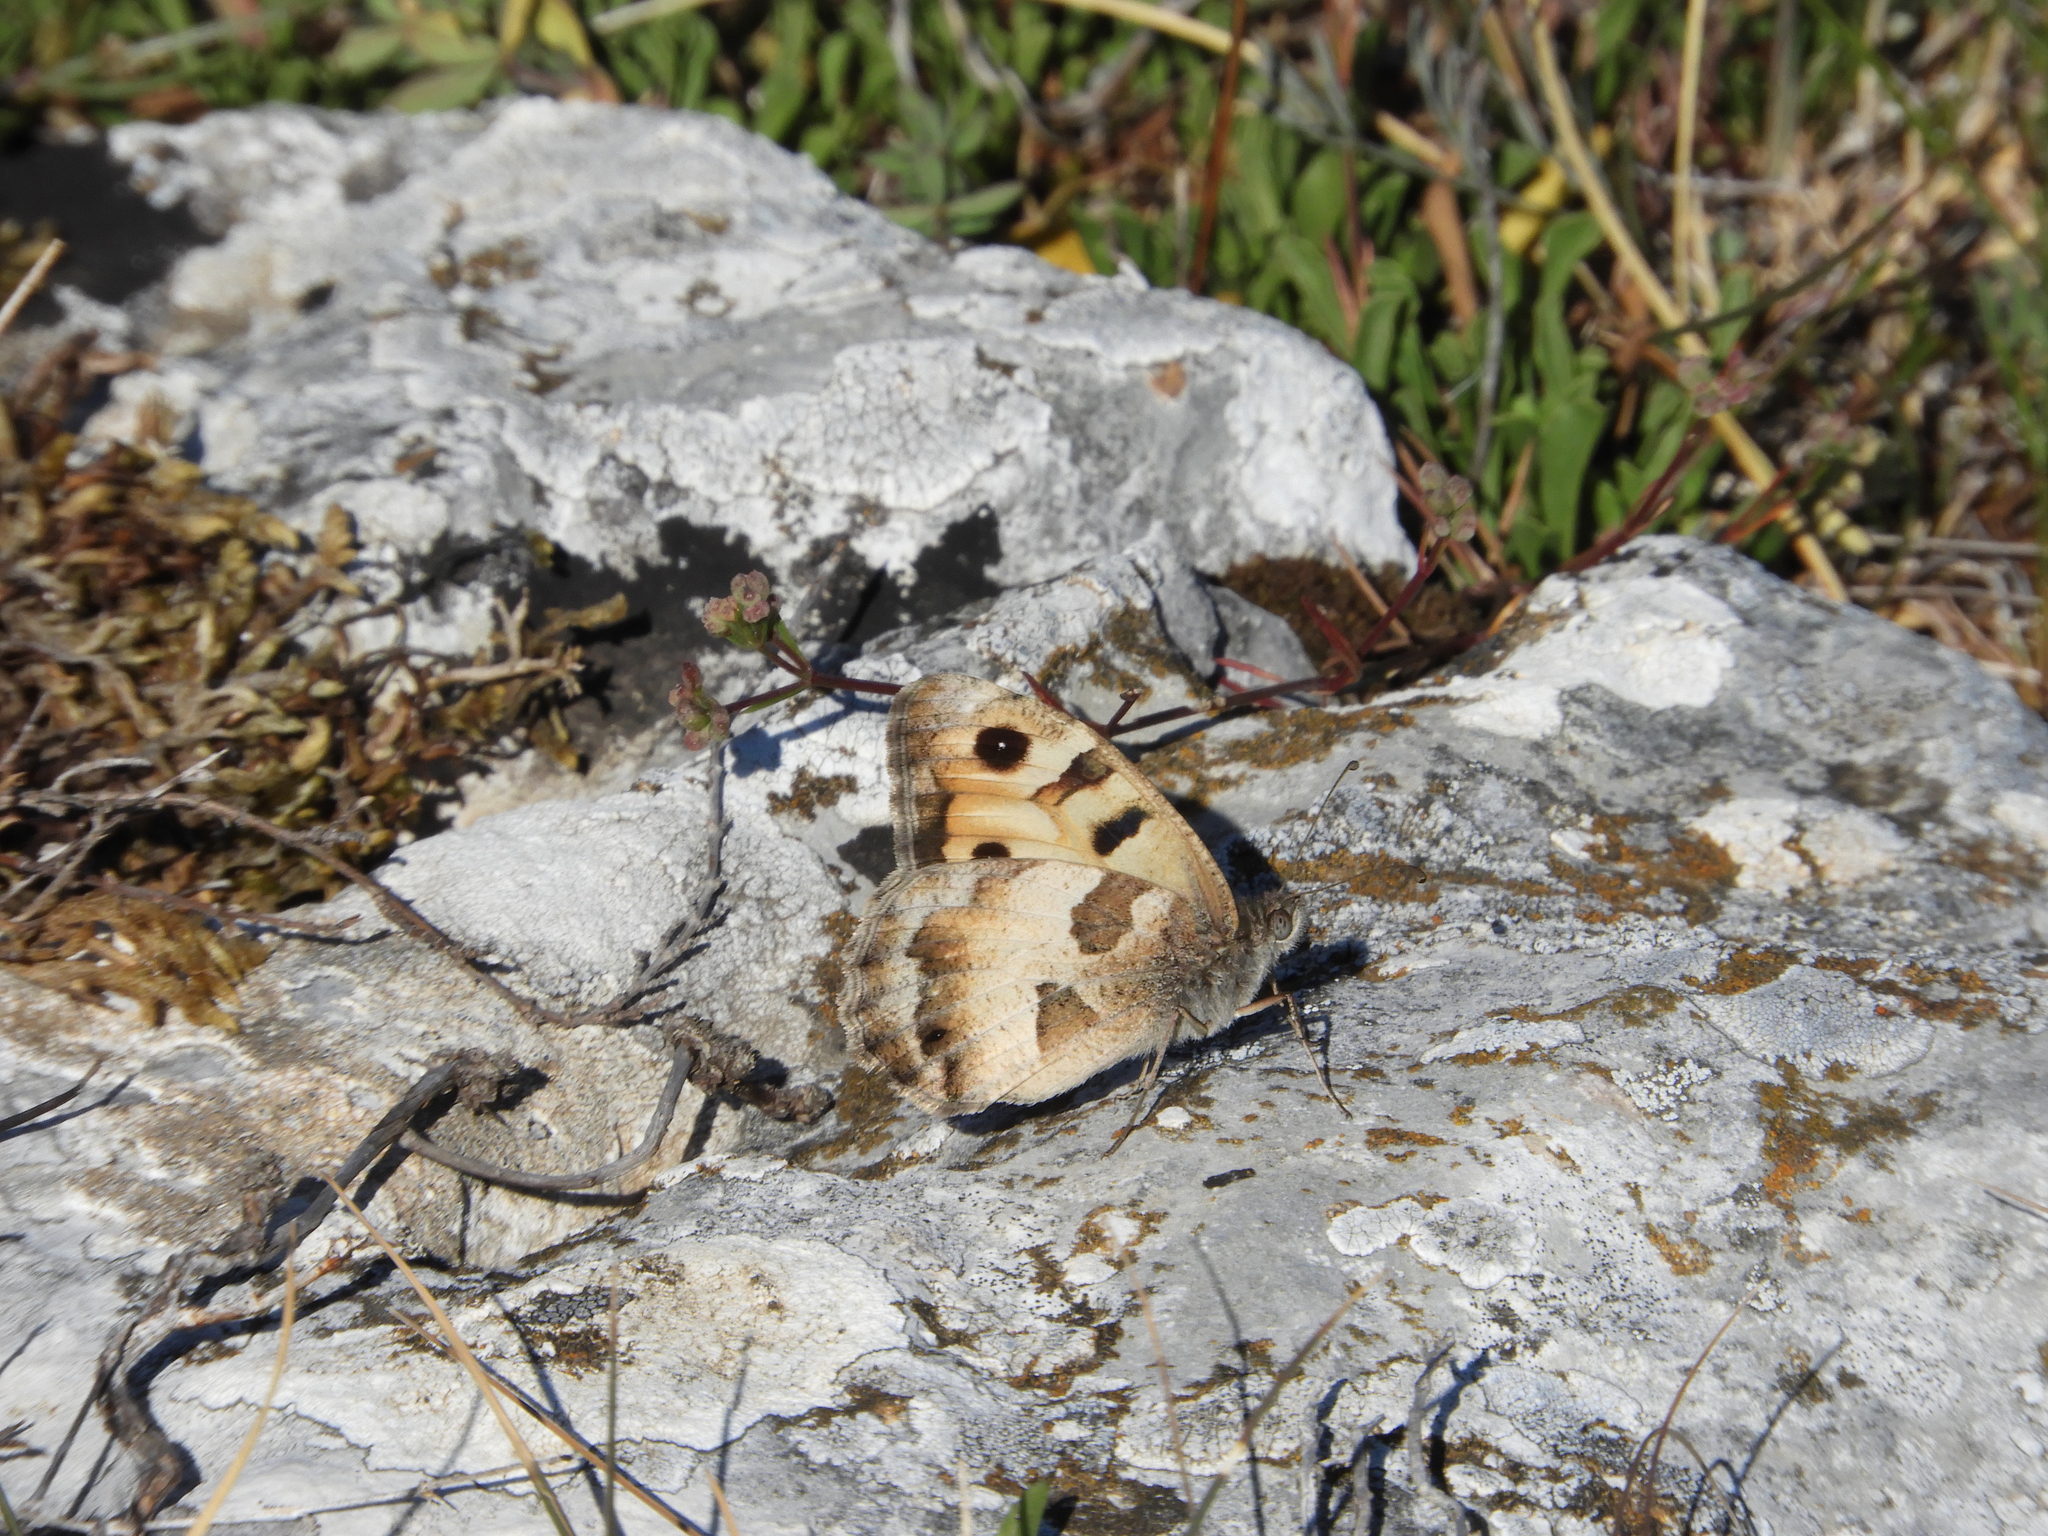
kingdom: Animalia
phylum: Arthropoda
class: Insecta
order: Lepidoptera
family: Nymphalidae
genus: Satyrus
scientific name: Satyrus briseis
